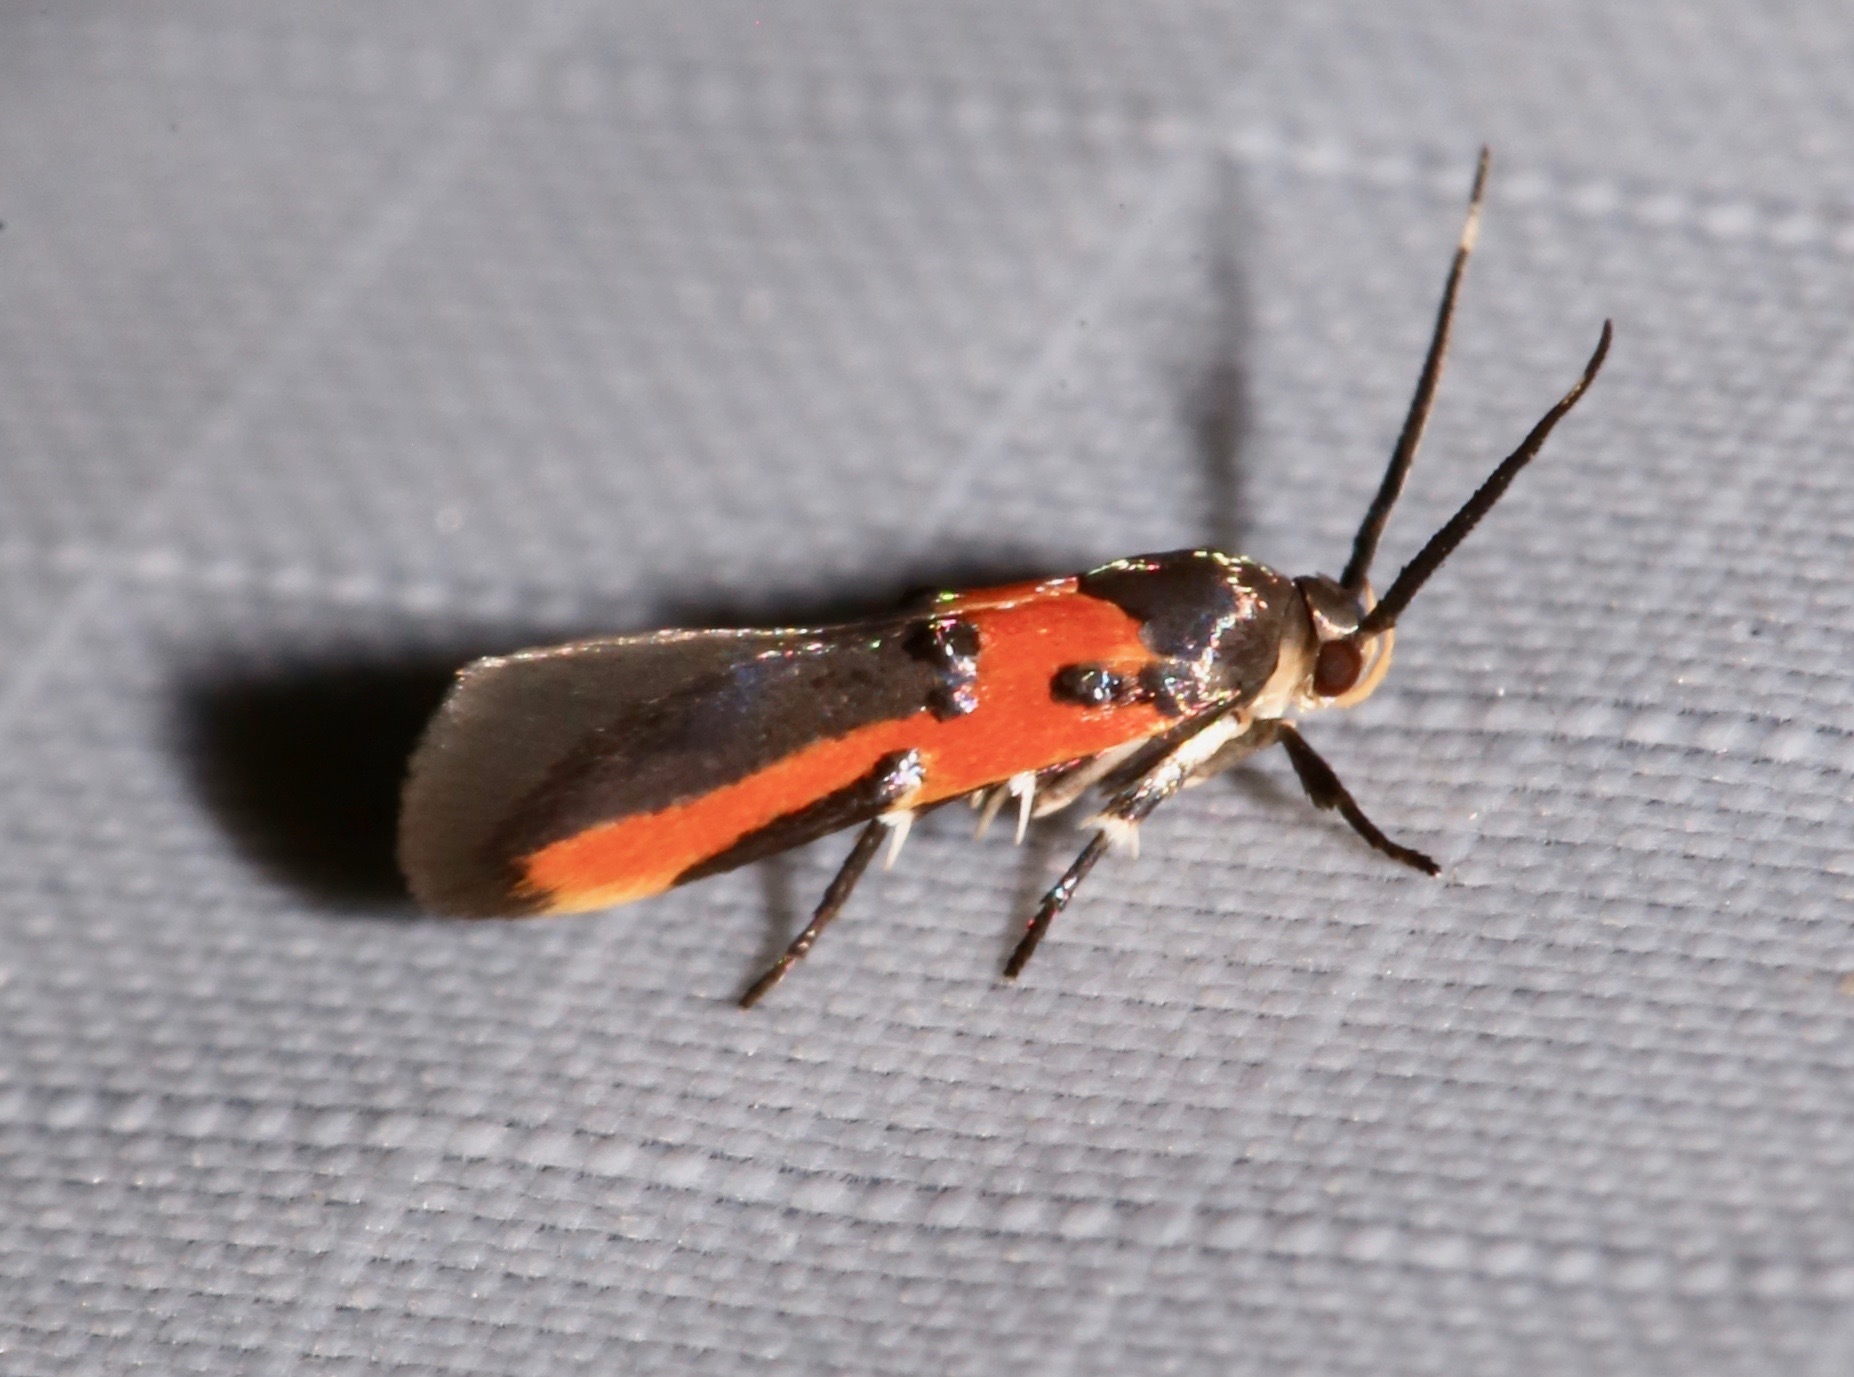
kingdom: Animalia
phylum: Arthropoda
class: Insecta
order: Lepidoptera
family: Cosmopterigidae
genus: Euclemensia
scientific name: Euclemensia bassettella
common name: Kermes scale moth
